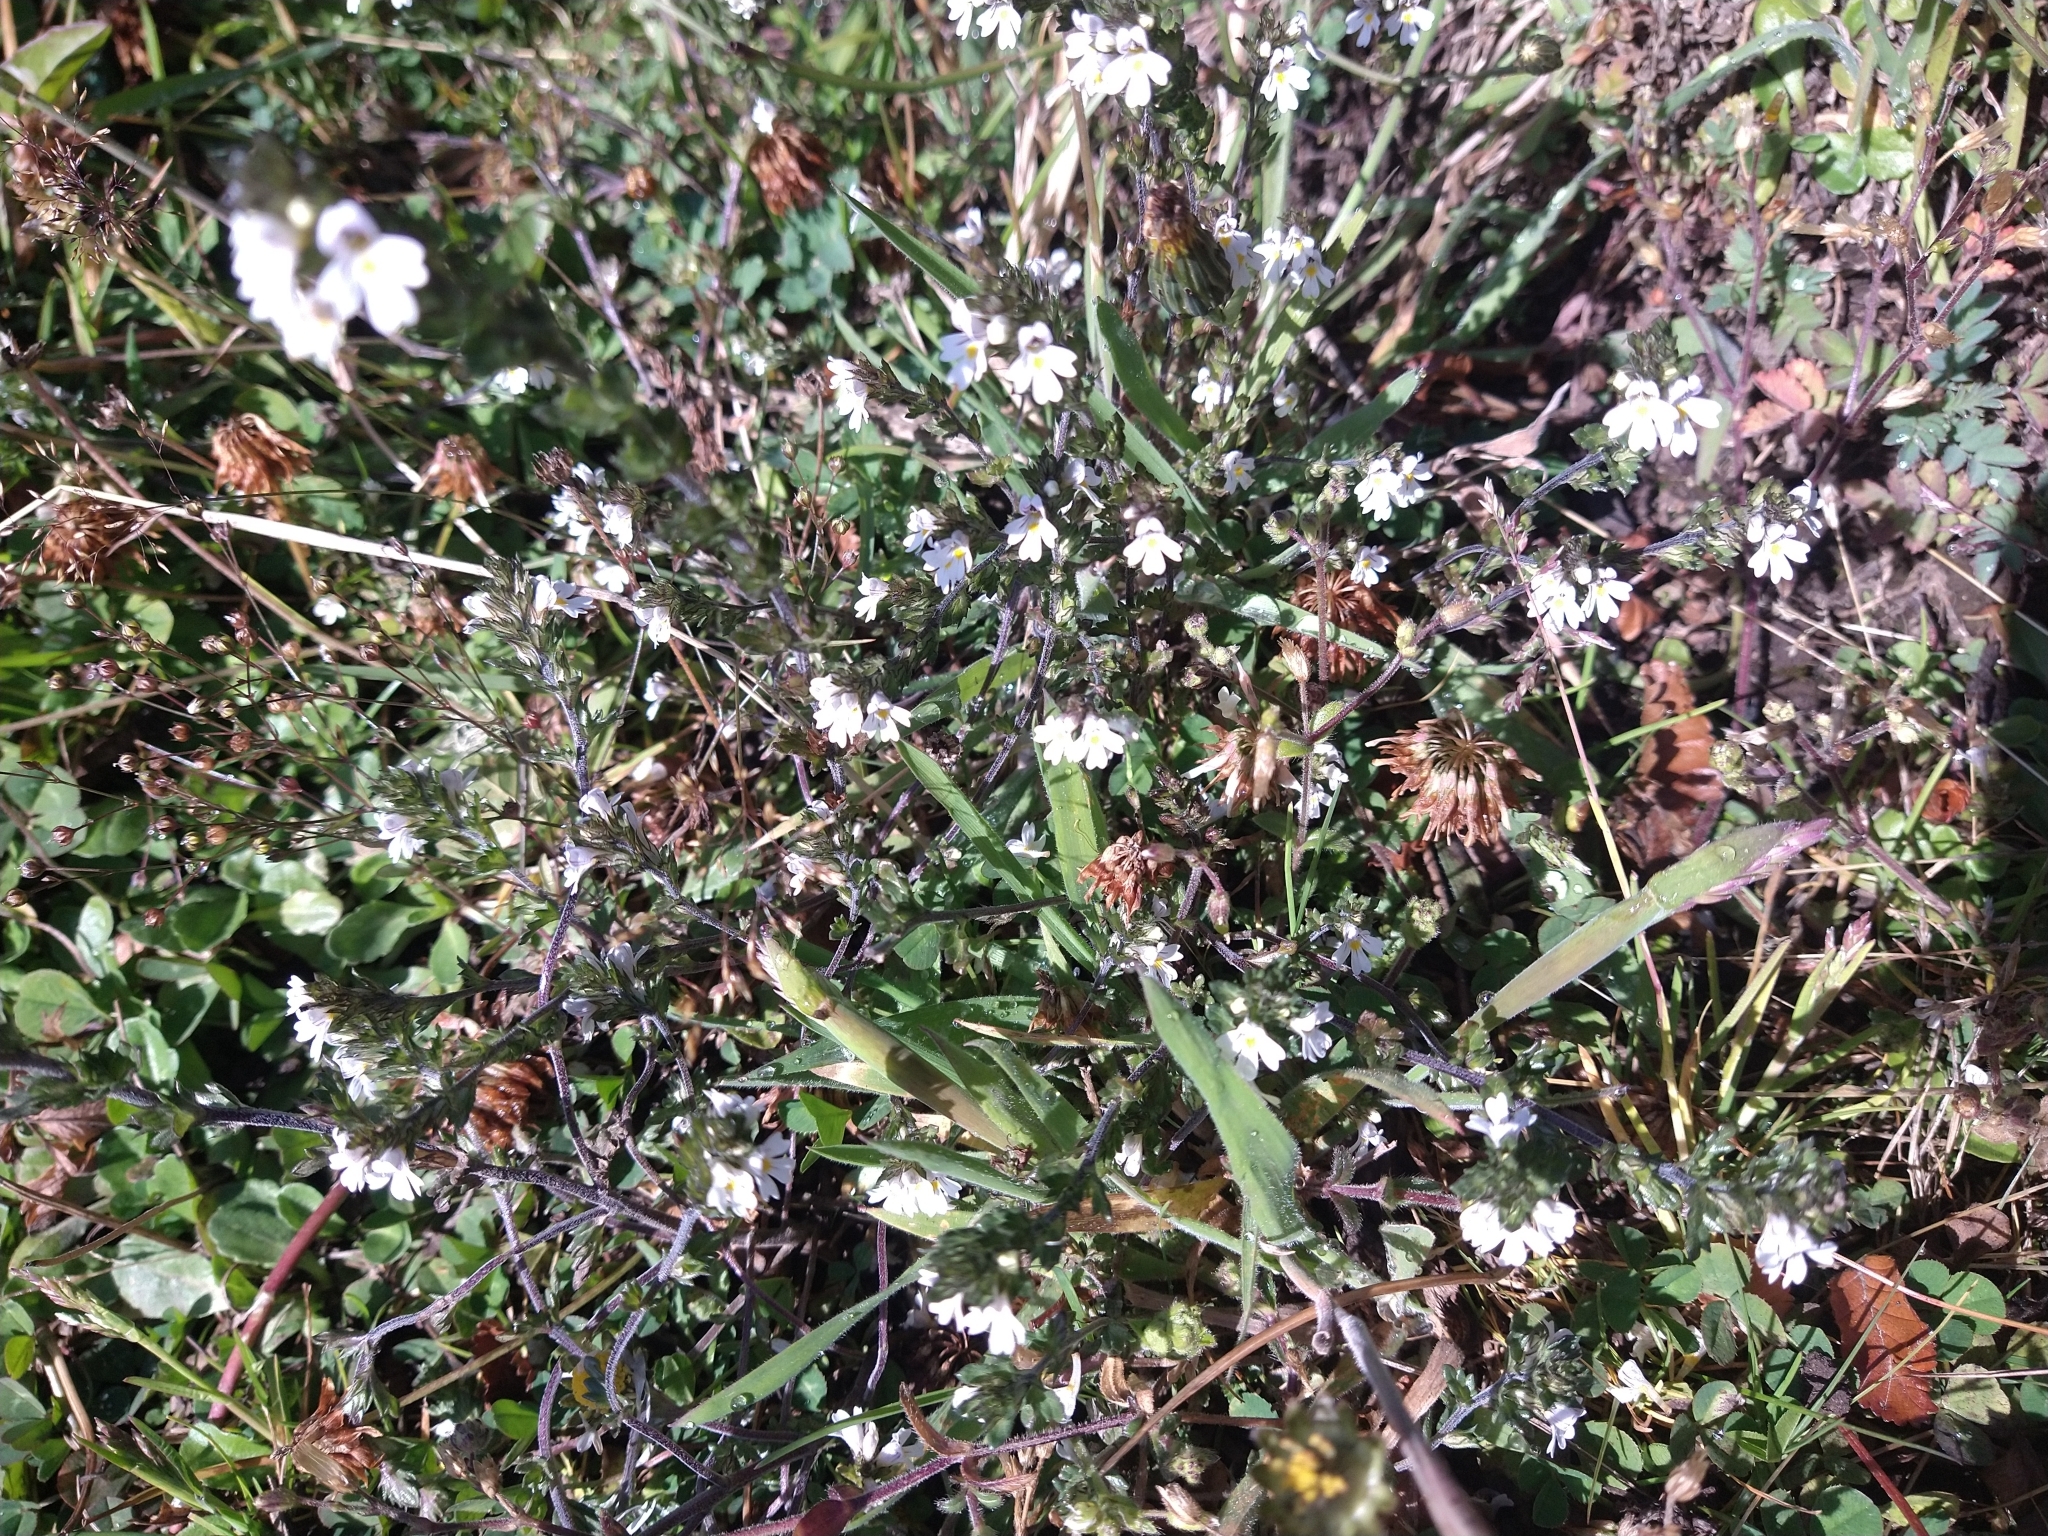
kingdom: Plantae
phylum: Tracheophyta
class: Magnoliopsida
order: Lamiales
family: Orobanchaceae
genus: Euphrasia
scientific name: Euphrasia officinalis
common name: Eyebright
